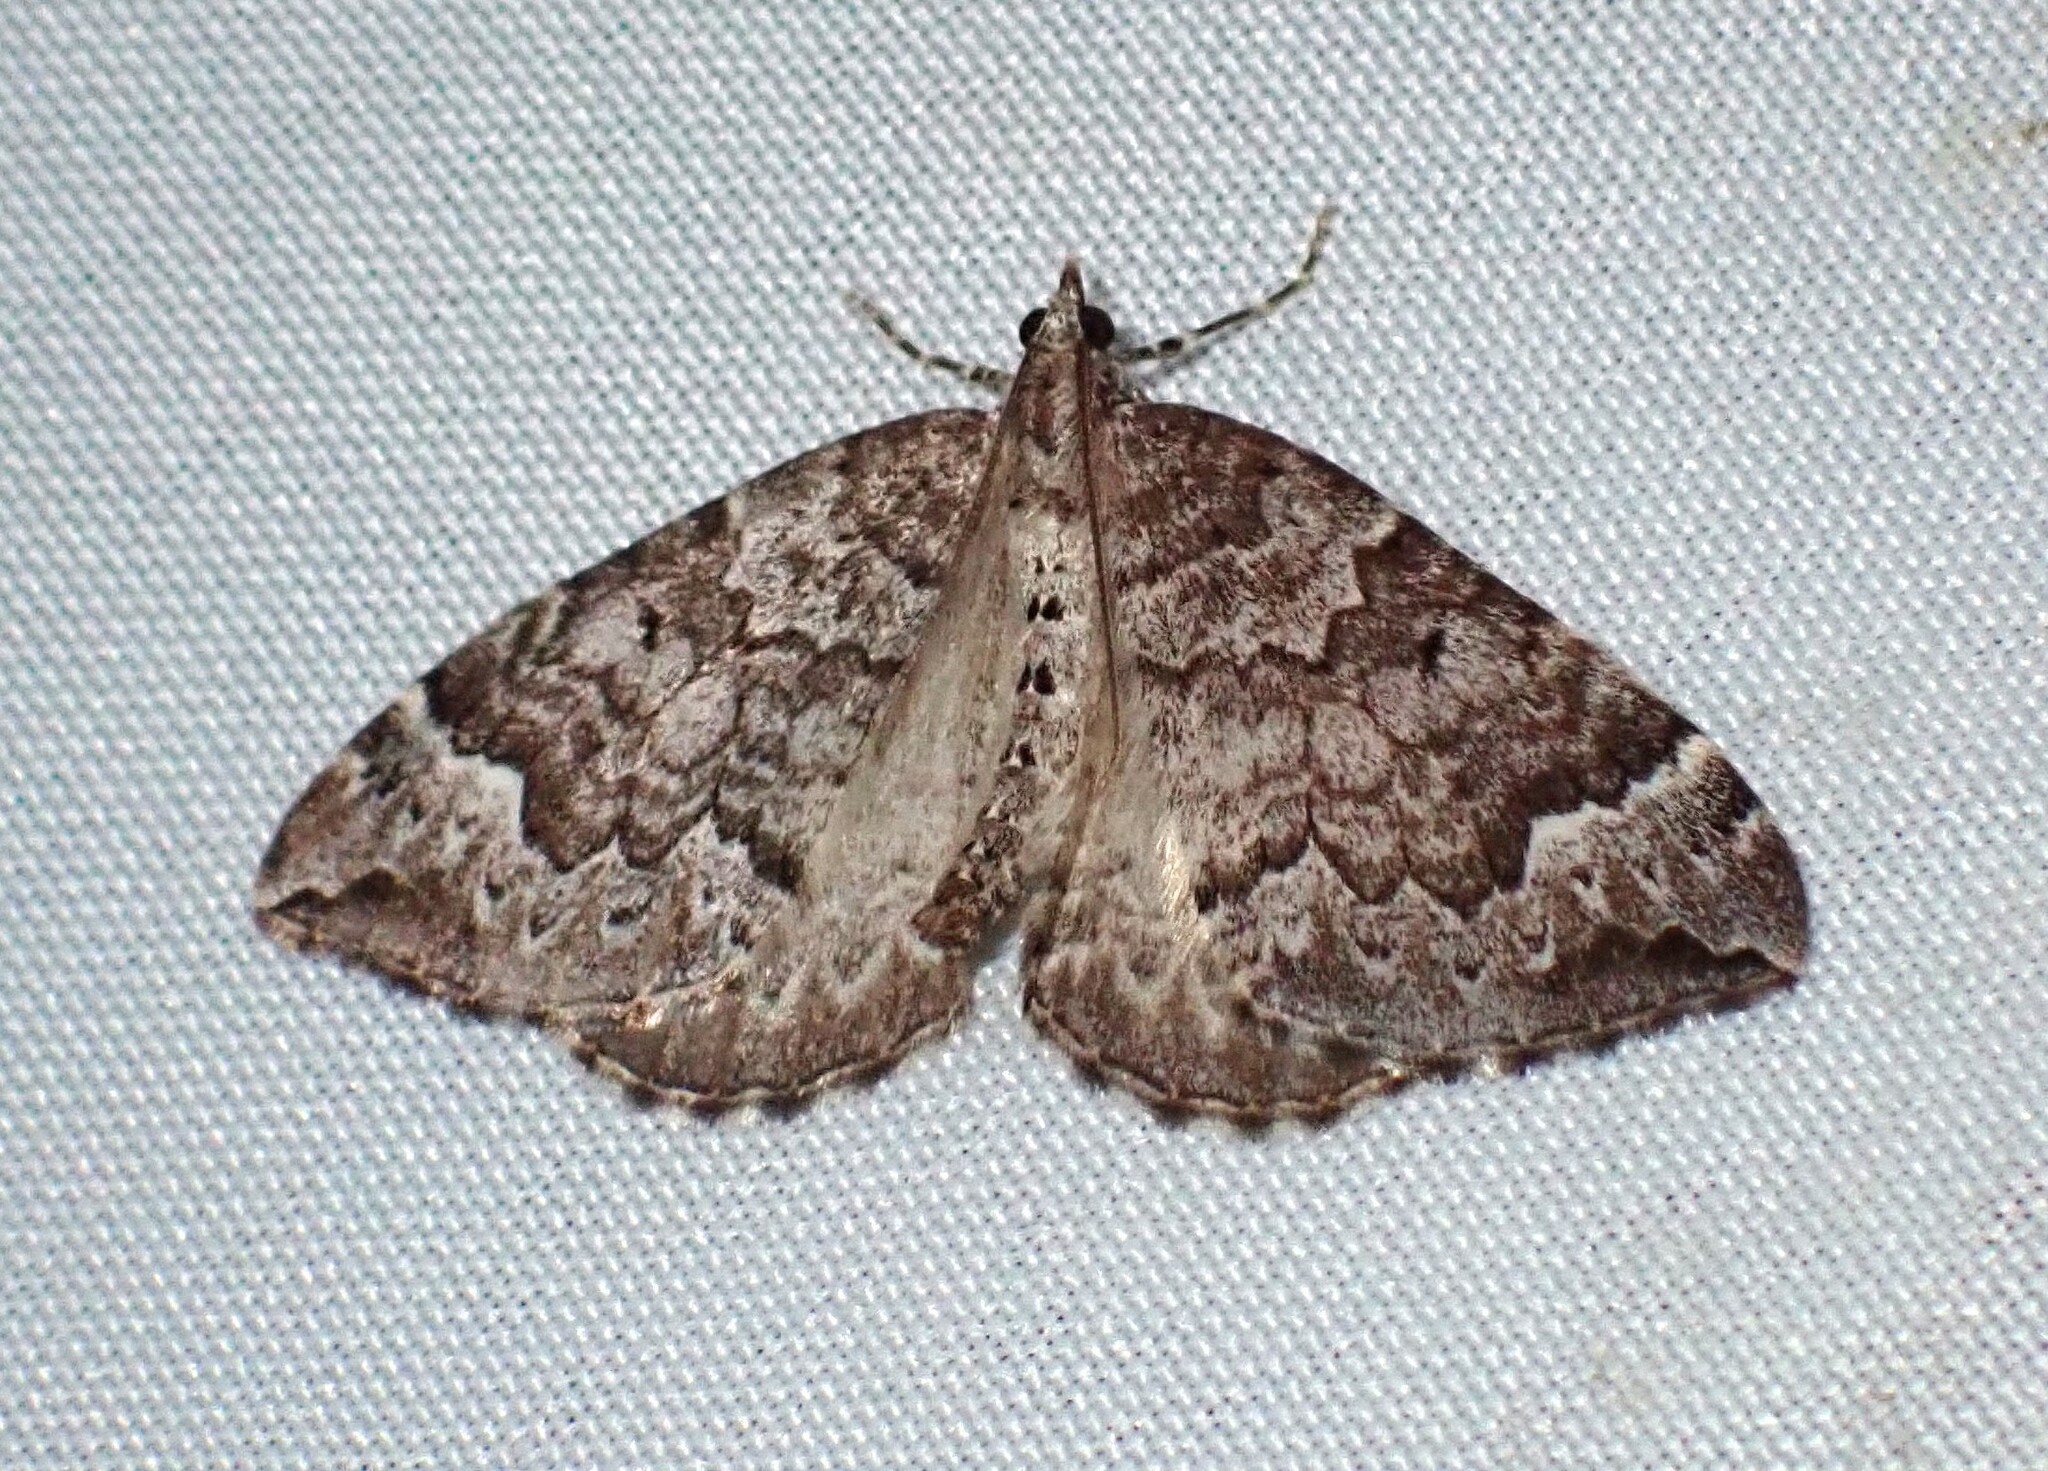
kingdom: Animalia
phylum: Arthropoda
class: Insecta
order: Lepidoptera
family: Geometridae
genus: Eulithis
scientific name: Eulithis destinata
